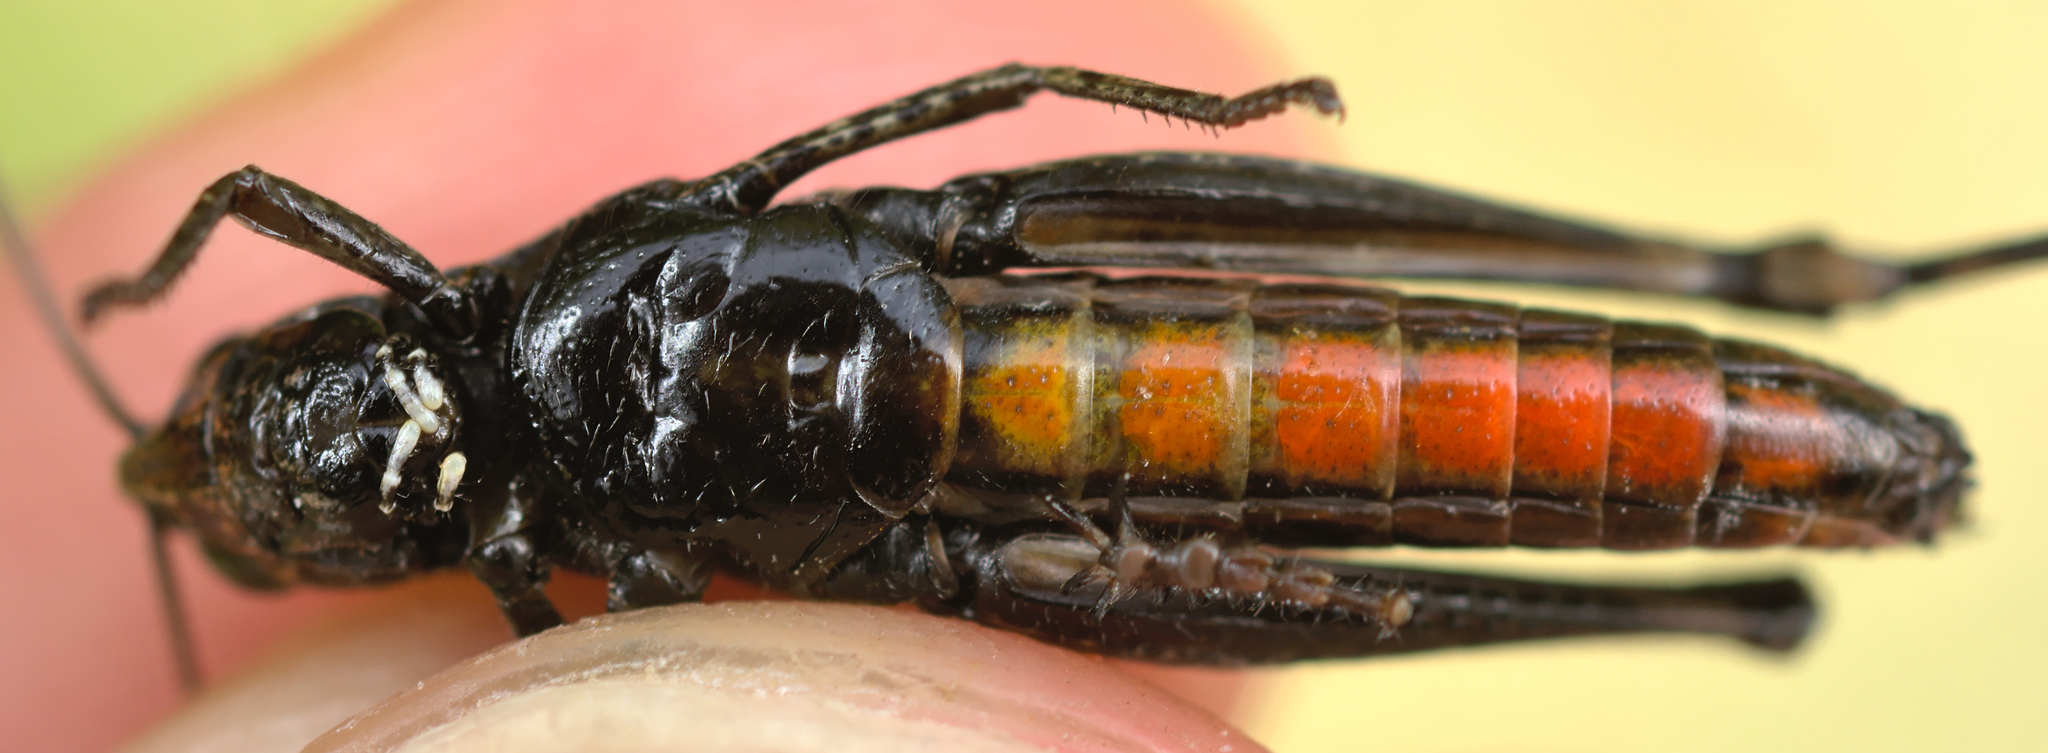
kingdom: Animalia
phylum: Arthropoda
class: Insecta
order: Orthoptera
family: Acrididae
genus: Omocestus
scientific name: Omocestus rufipes
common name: Woodland grasshopper
